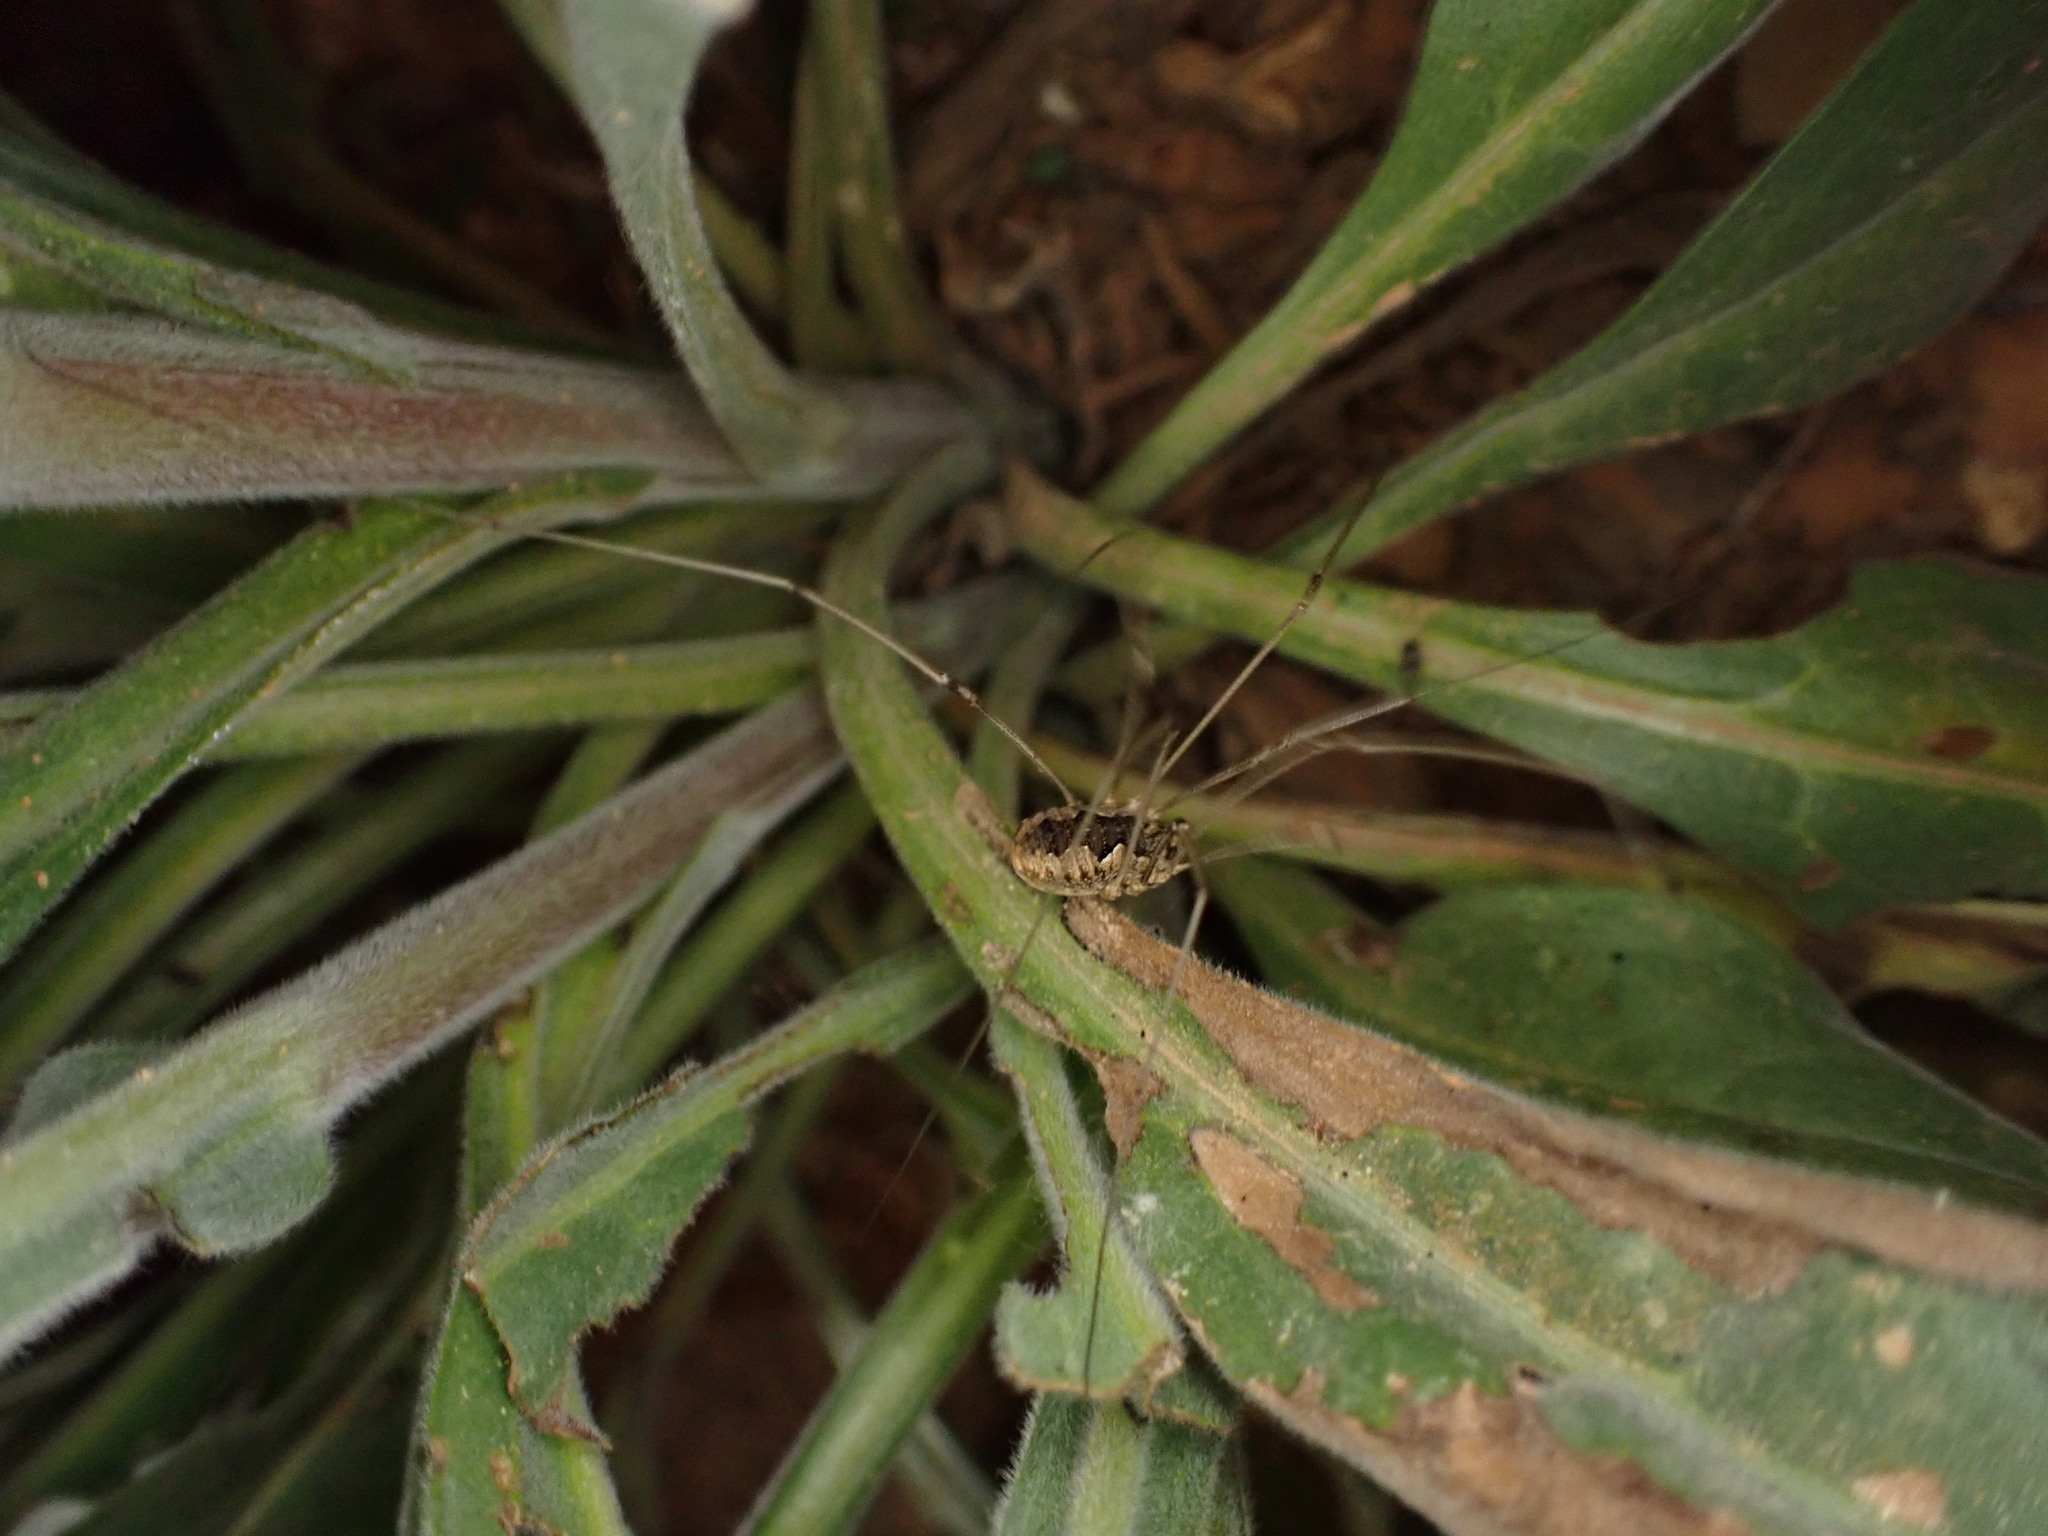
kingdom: Animalia
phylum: Arthropoda
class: Arachnida
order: Opiliones
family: Phalangiidae
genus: Phalangium
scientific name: Phalangium opilio
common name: Daddy longleg
